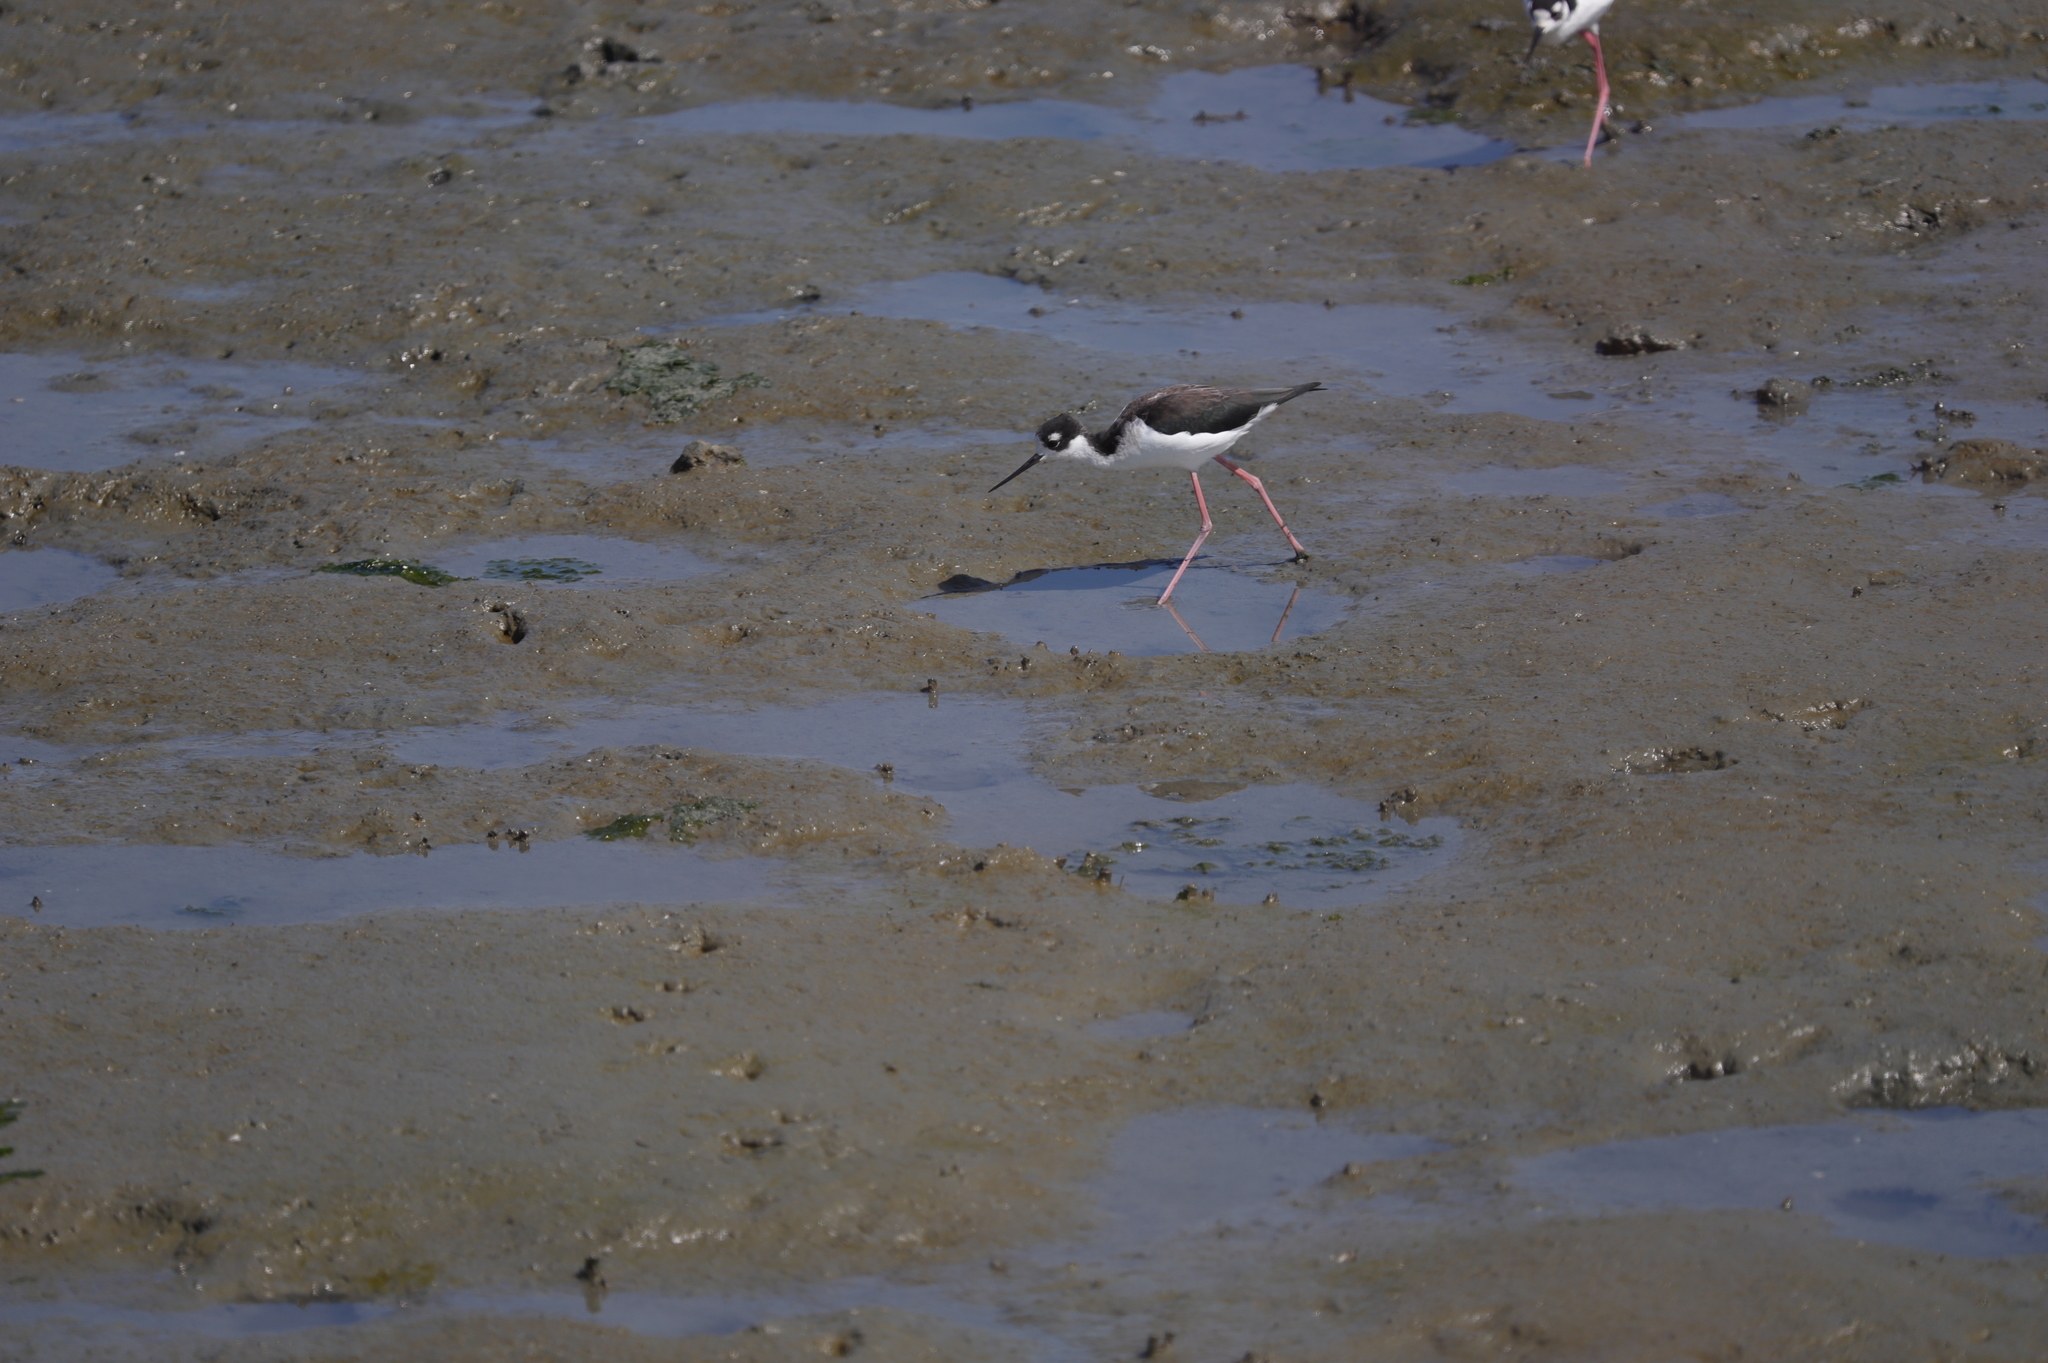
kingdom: Animalia
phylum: Chordata
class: Aves
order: Charadriiformes
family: Recurvirostridae
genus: Himantopus
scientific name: Himantopus mexicanus
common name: Black-necked stilt
